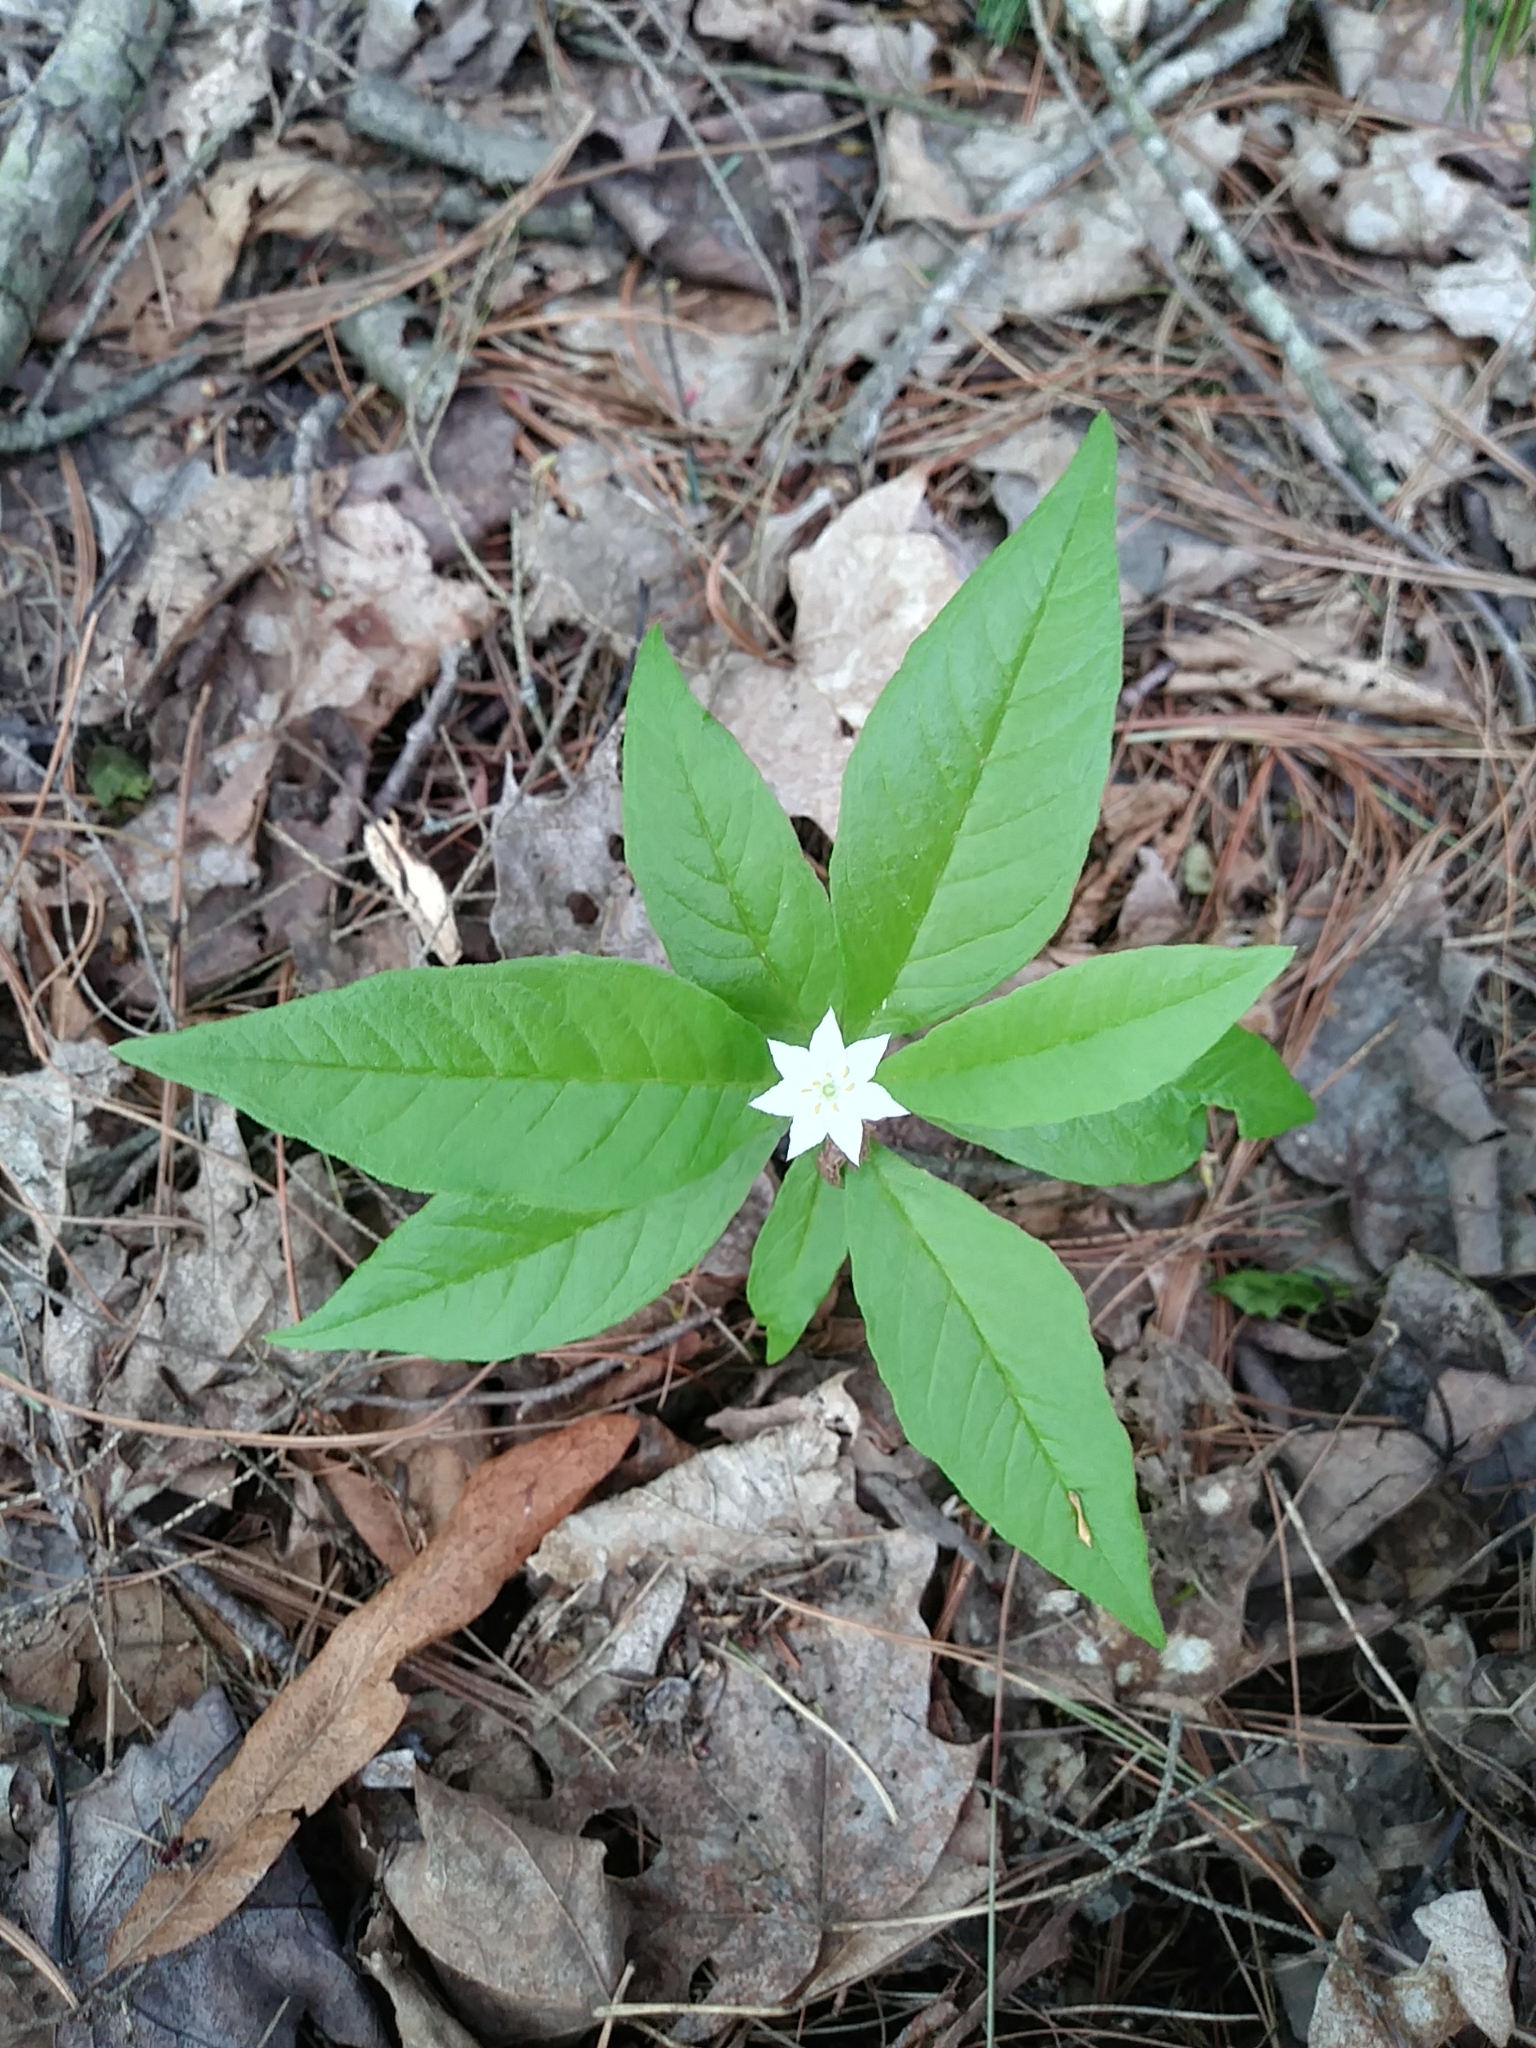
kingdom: Plantae
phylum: Tracheophyta
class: Magnoliopsida
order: Ericales
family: Primulaceae
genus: Lysimachia
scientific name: Lysimachia borealis
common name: American starflower
